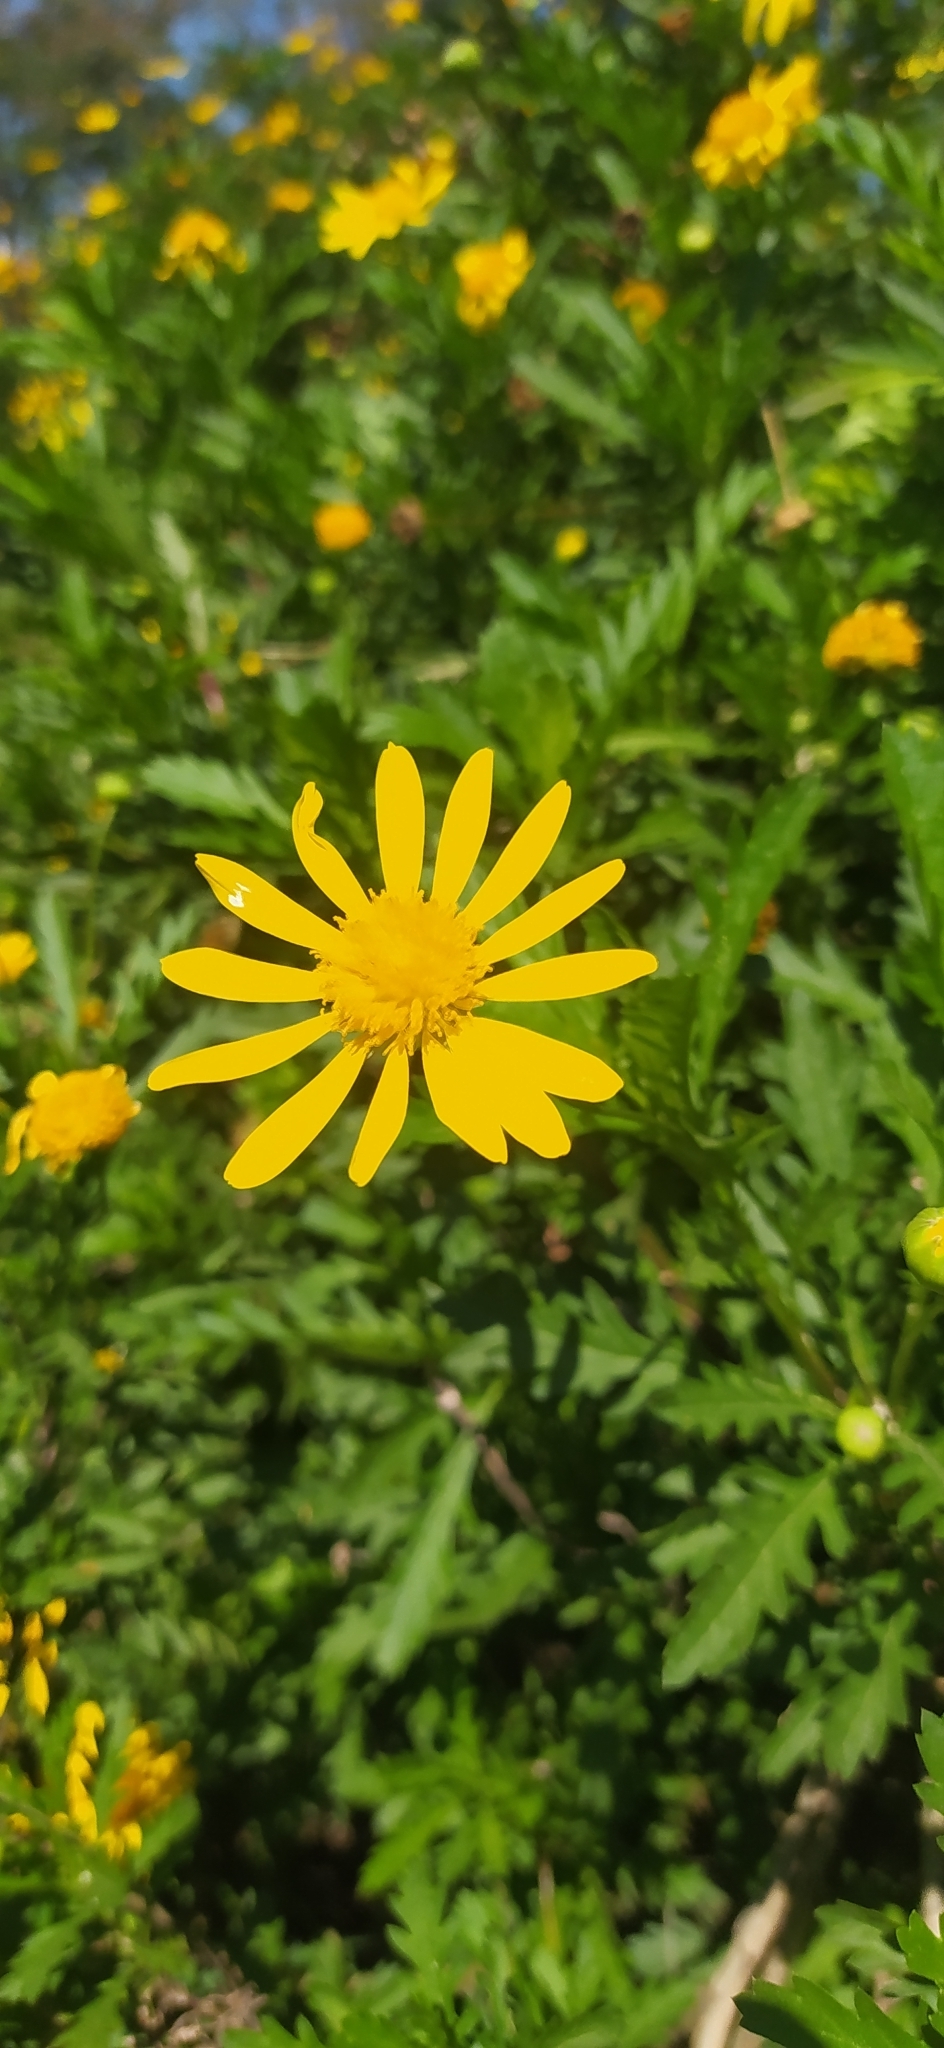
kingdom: Plantae
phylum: Tracheophyta
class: Magnoliopsida
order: Asterales
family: Asteraceae
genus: Euryops
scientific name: Euryops chrysanthemoides
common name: Bull's eye
